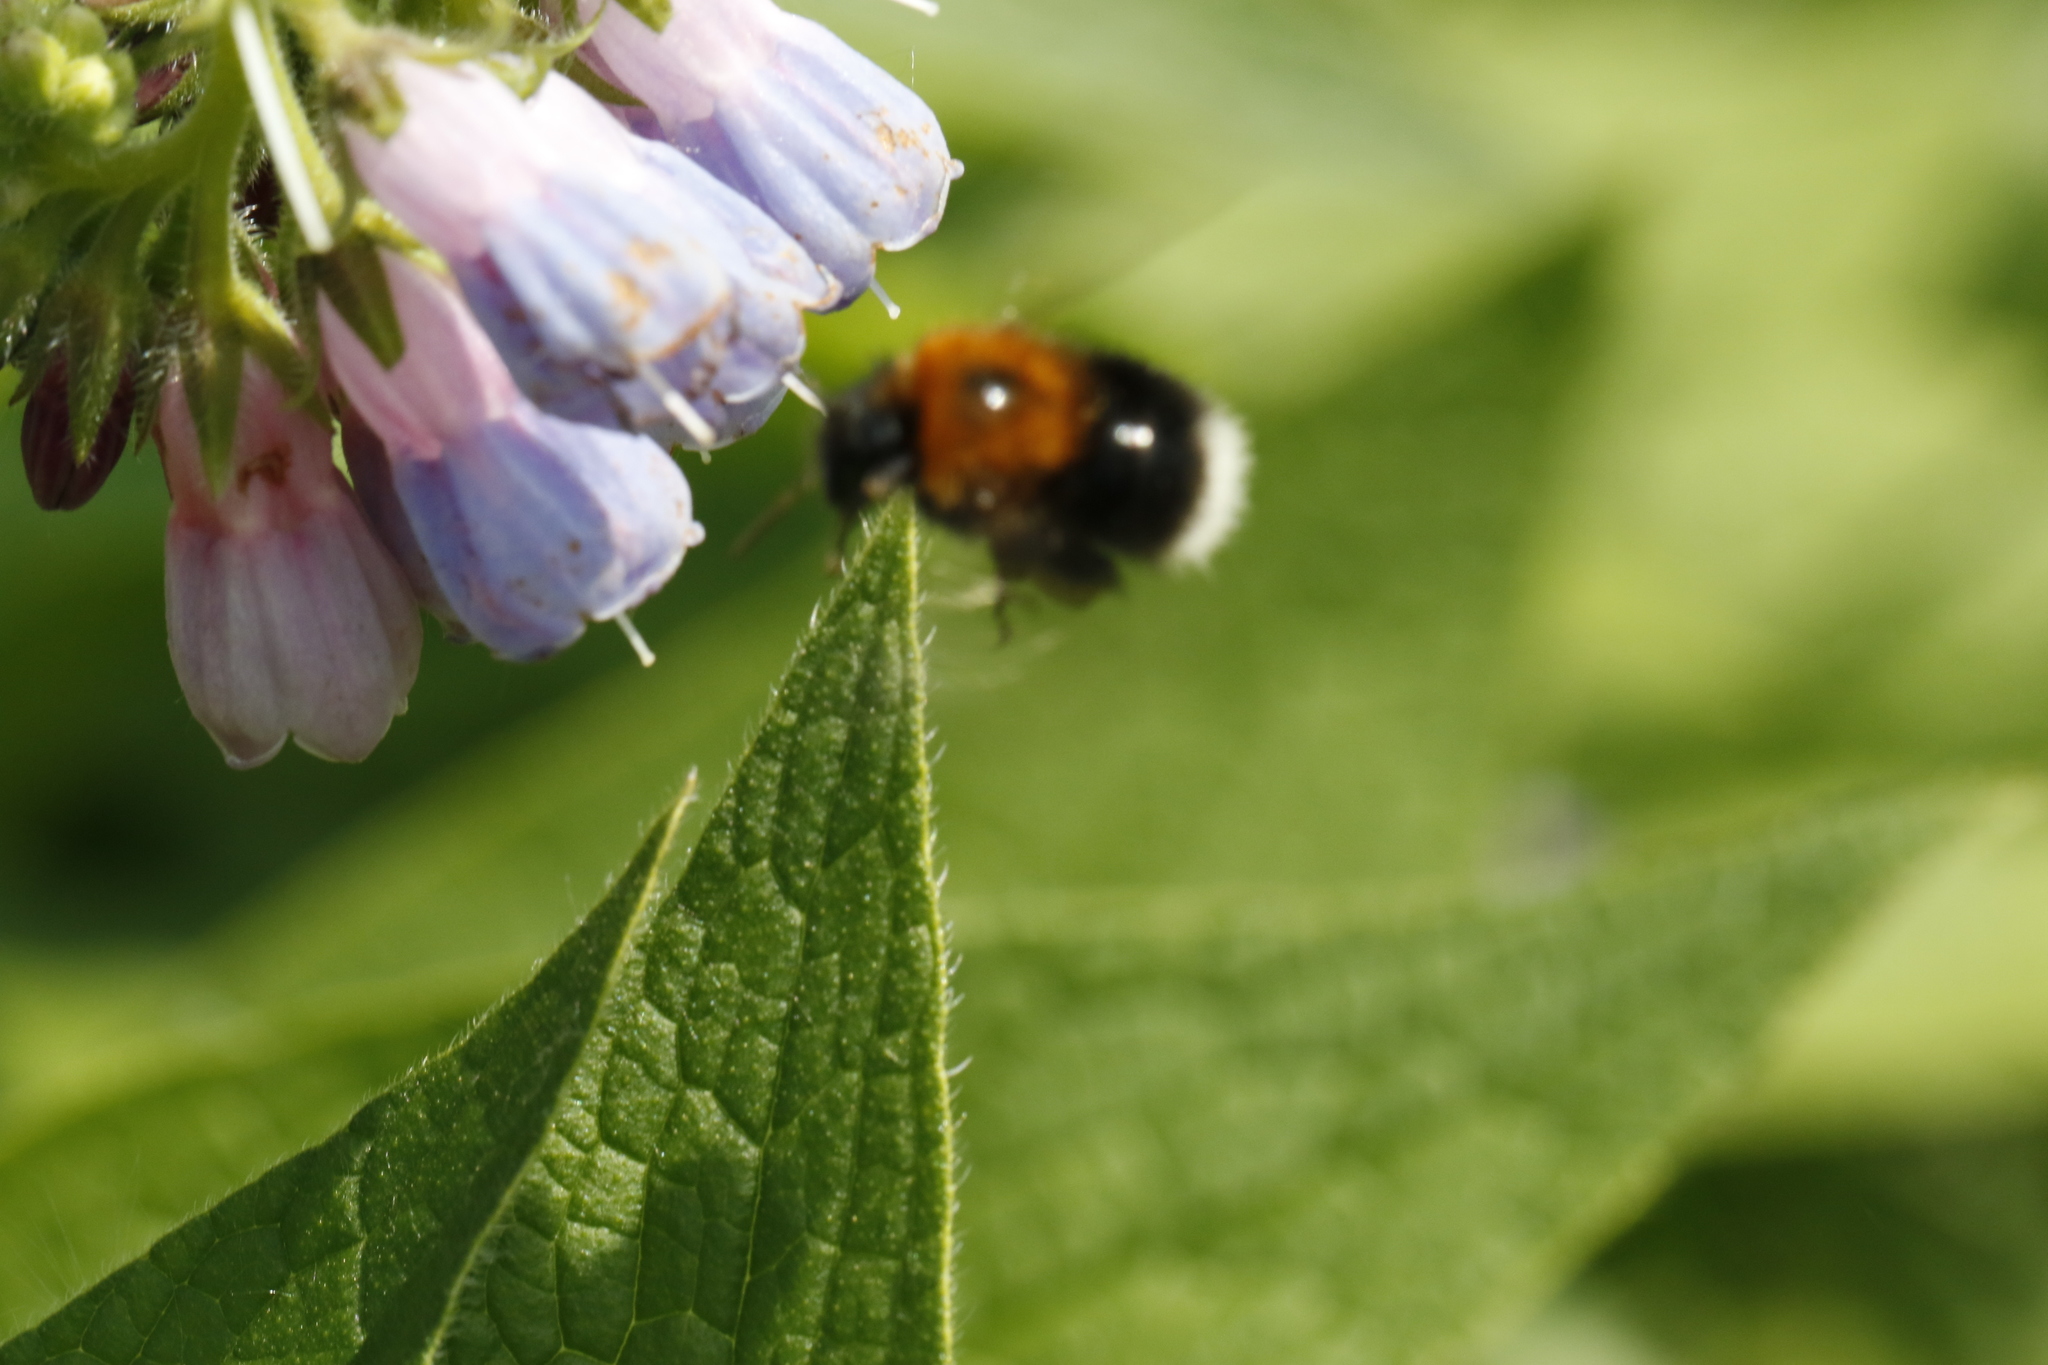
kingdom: Animalia
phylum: Arthropoda
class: Insecta
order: Hymenoptera
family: Apidae
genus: Bombus
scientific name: Bombus hypnorum
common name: New garden bumblebee
